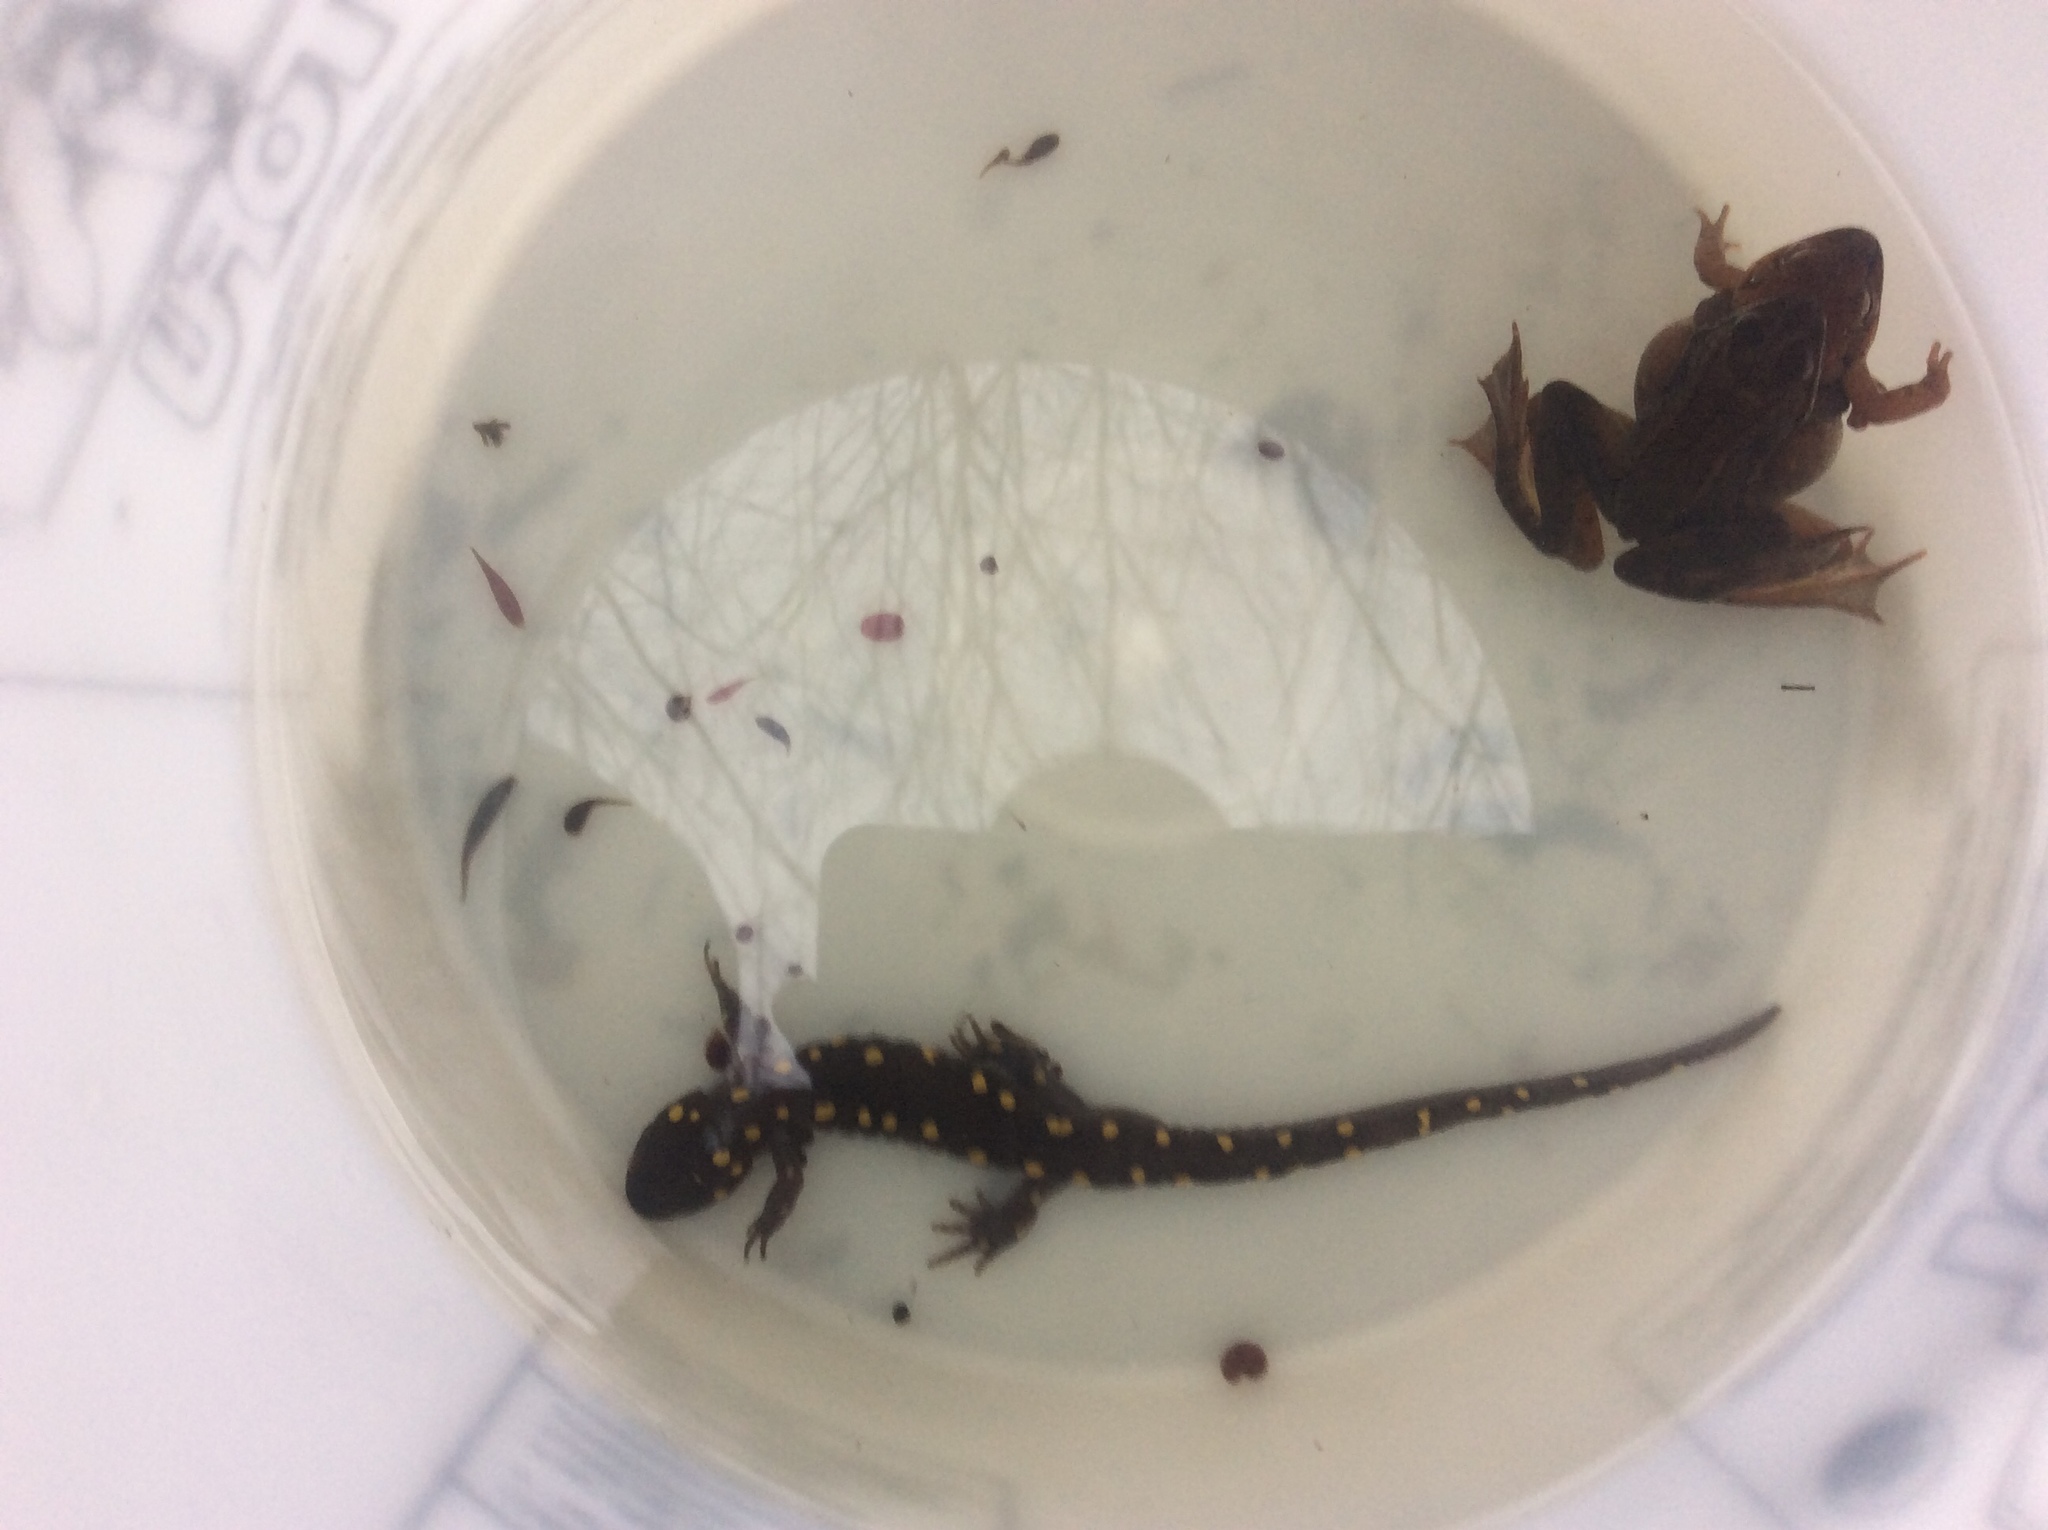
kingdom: Animalia
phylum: Chordata
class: Amphibia
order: Caudata
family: Ambystomatidae
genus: Ambystoma
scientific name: Ambystoma maculatum
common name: Spotted salamander
